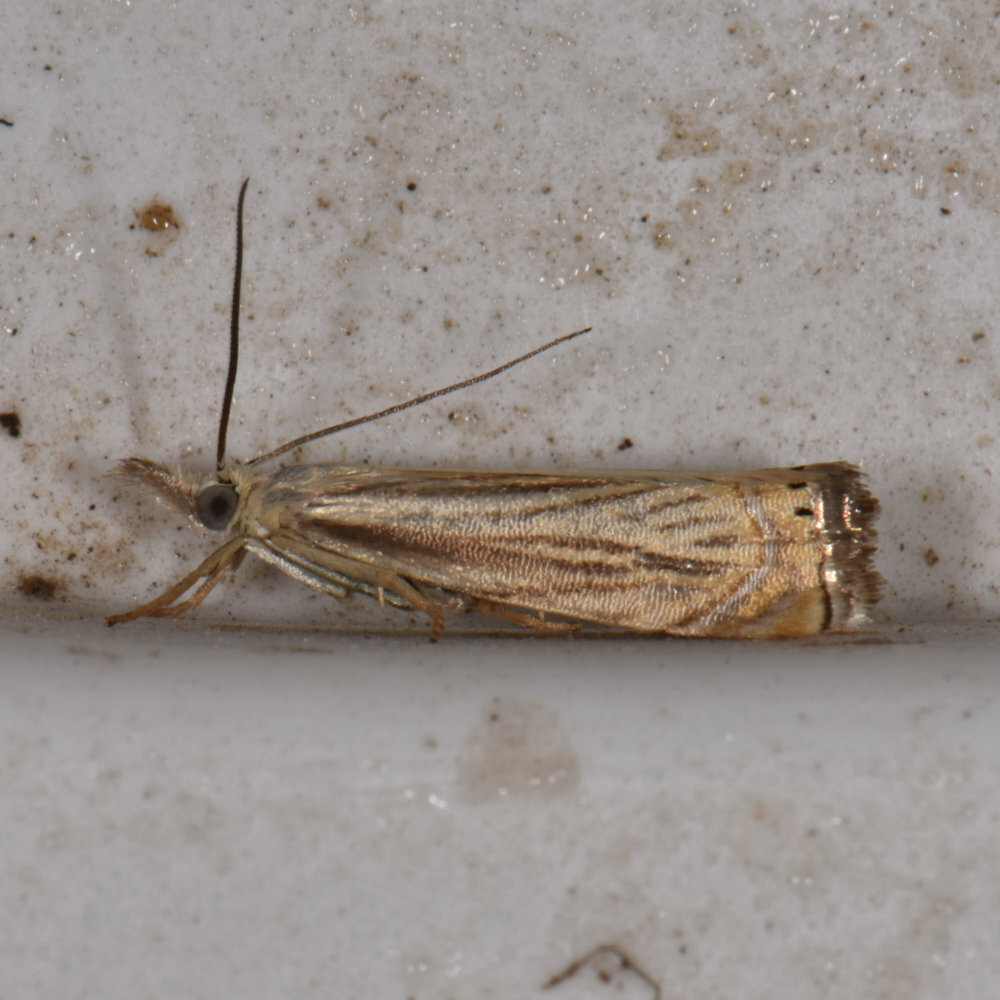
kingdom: Animalia
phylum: Arthropoda
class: Insecta
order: Lepidoptera
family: Crambidae
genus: Chrysoteuchia
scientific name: Chrysoteuchia topiarius
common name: Topiary grass-veneer
